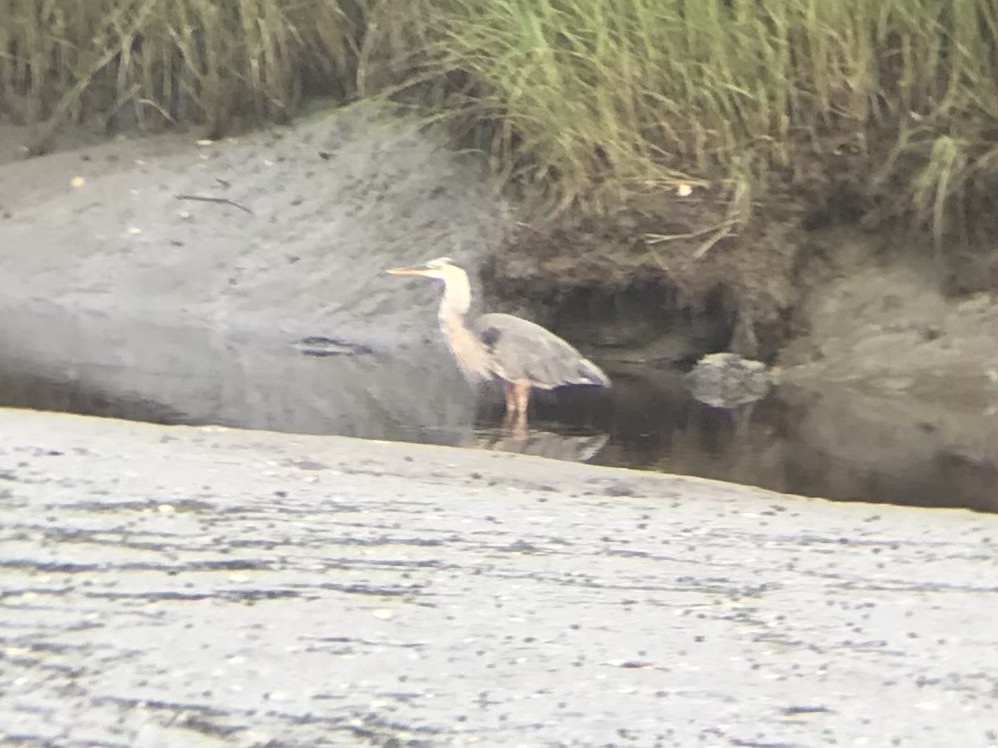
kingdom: Animalia
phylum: Chordata
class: Aves
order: Pelecaniformes
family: Ardeidae
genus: Ardea
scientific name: Ardea herodias
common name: Great blue heron
